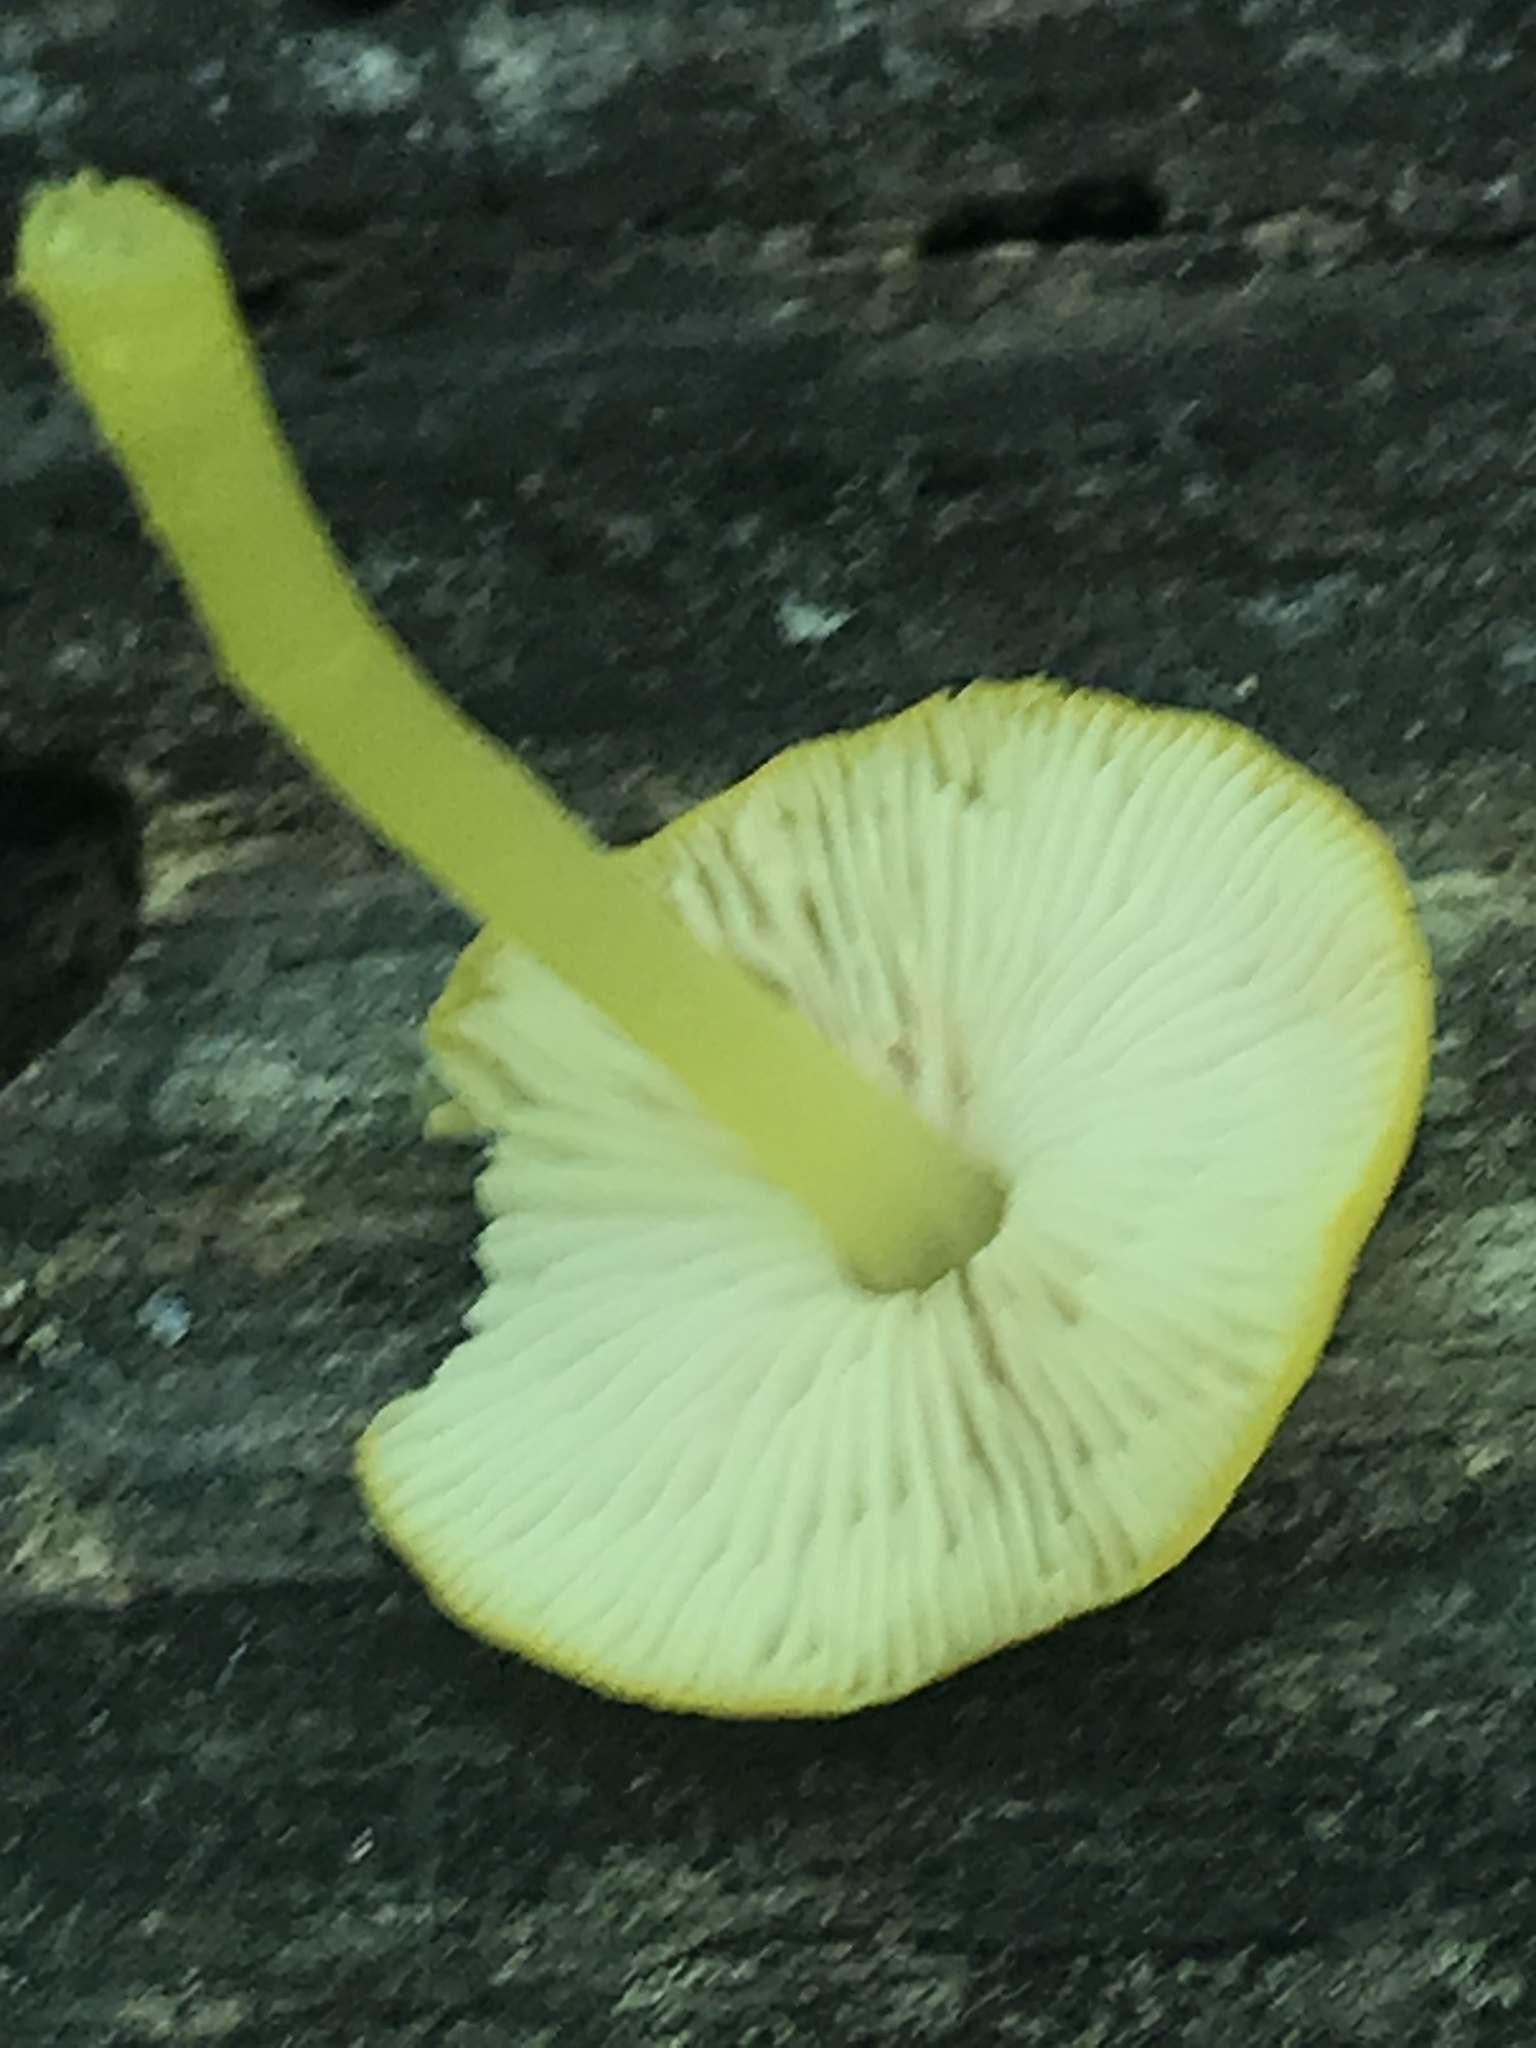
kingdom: Fungi
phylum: Basidiomycota
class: Agaricomycetes
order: Agaricales
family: Pluteaceae
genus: Pluteus
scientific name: Pluteus chrysophlebius
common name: Yellow deer mushroom
